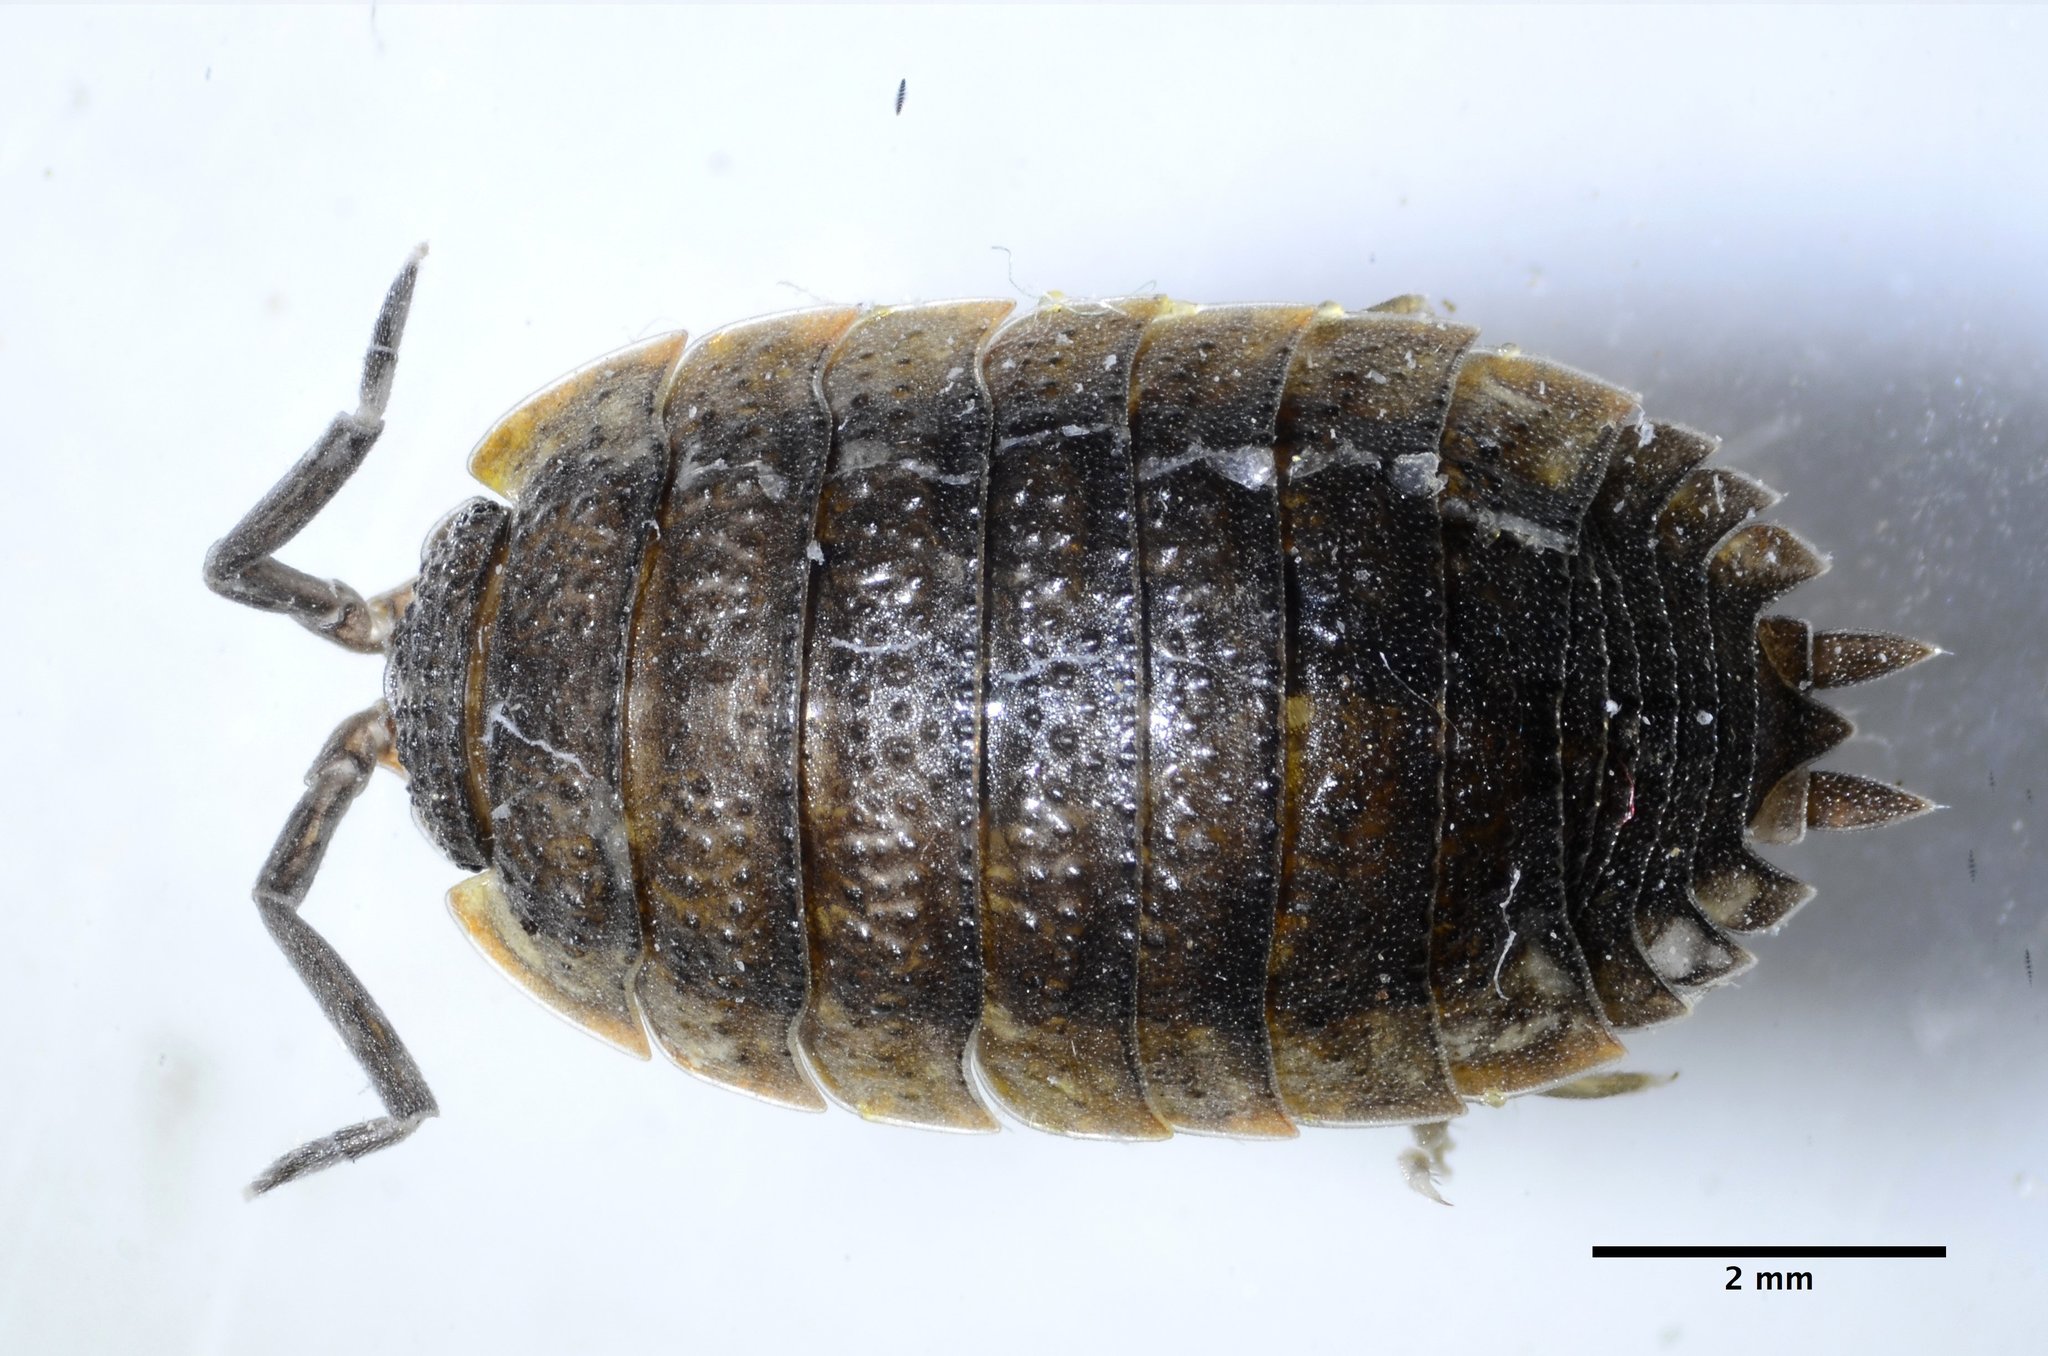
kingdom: Animalia
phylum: Arthropoda
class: Malacostraca
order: Isopoda
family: Porcellionidae
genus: Porcellio
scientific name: Porcellio scaber
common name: Common rough woodlouse
